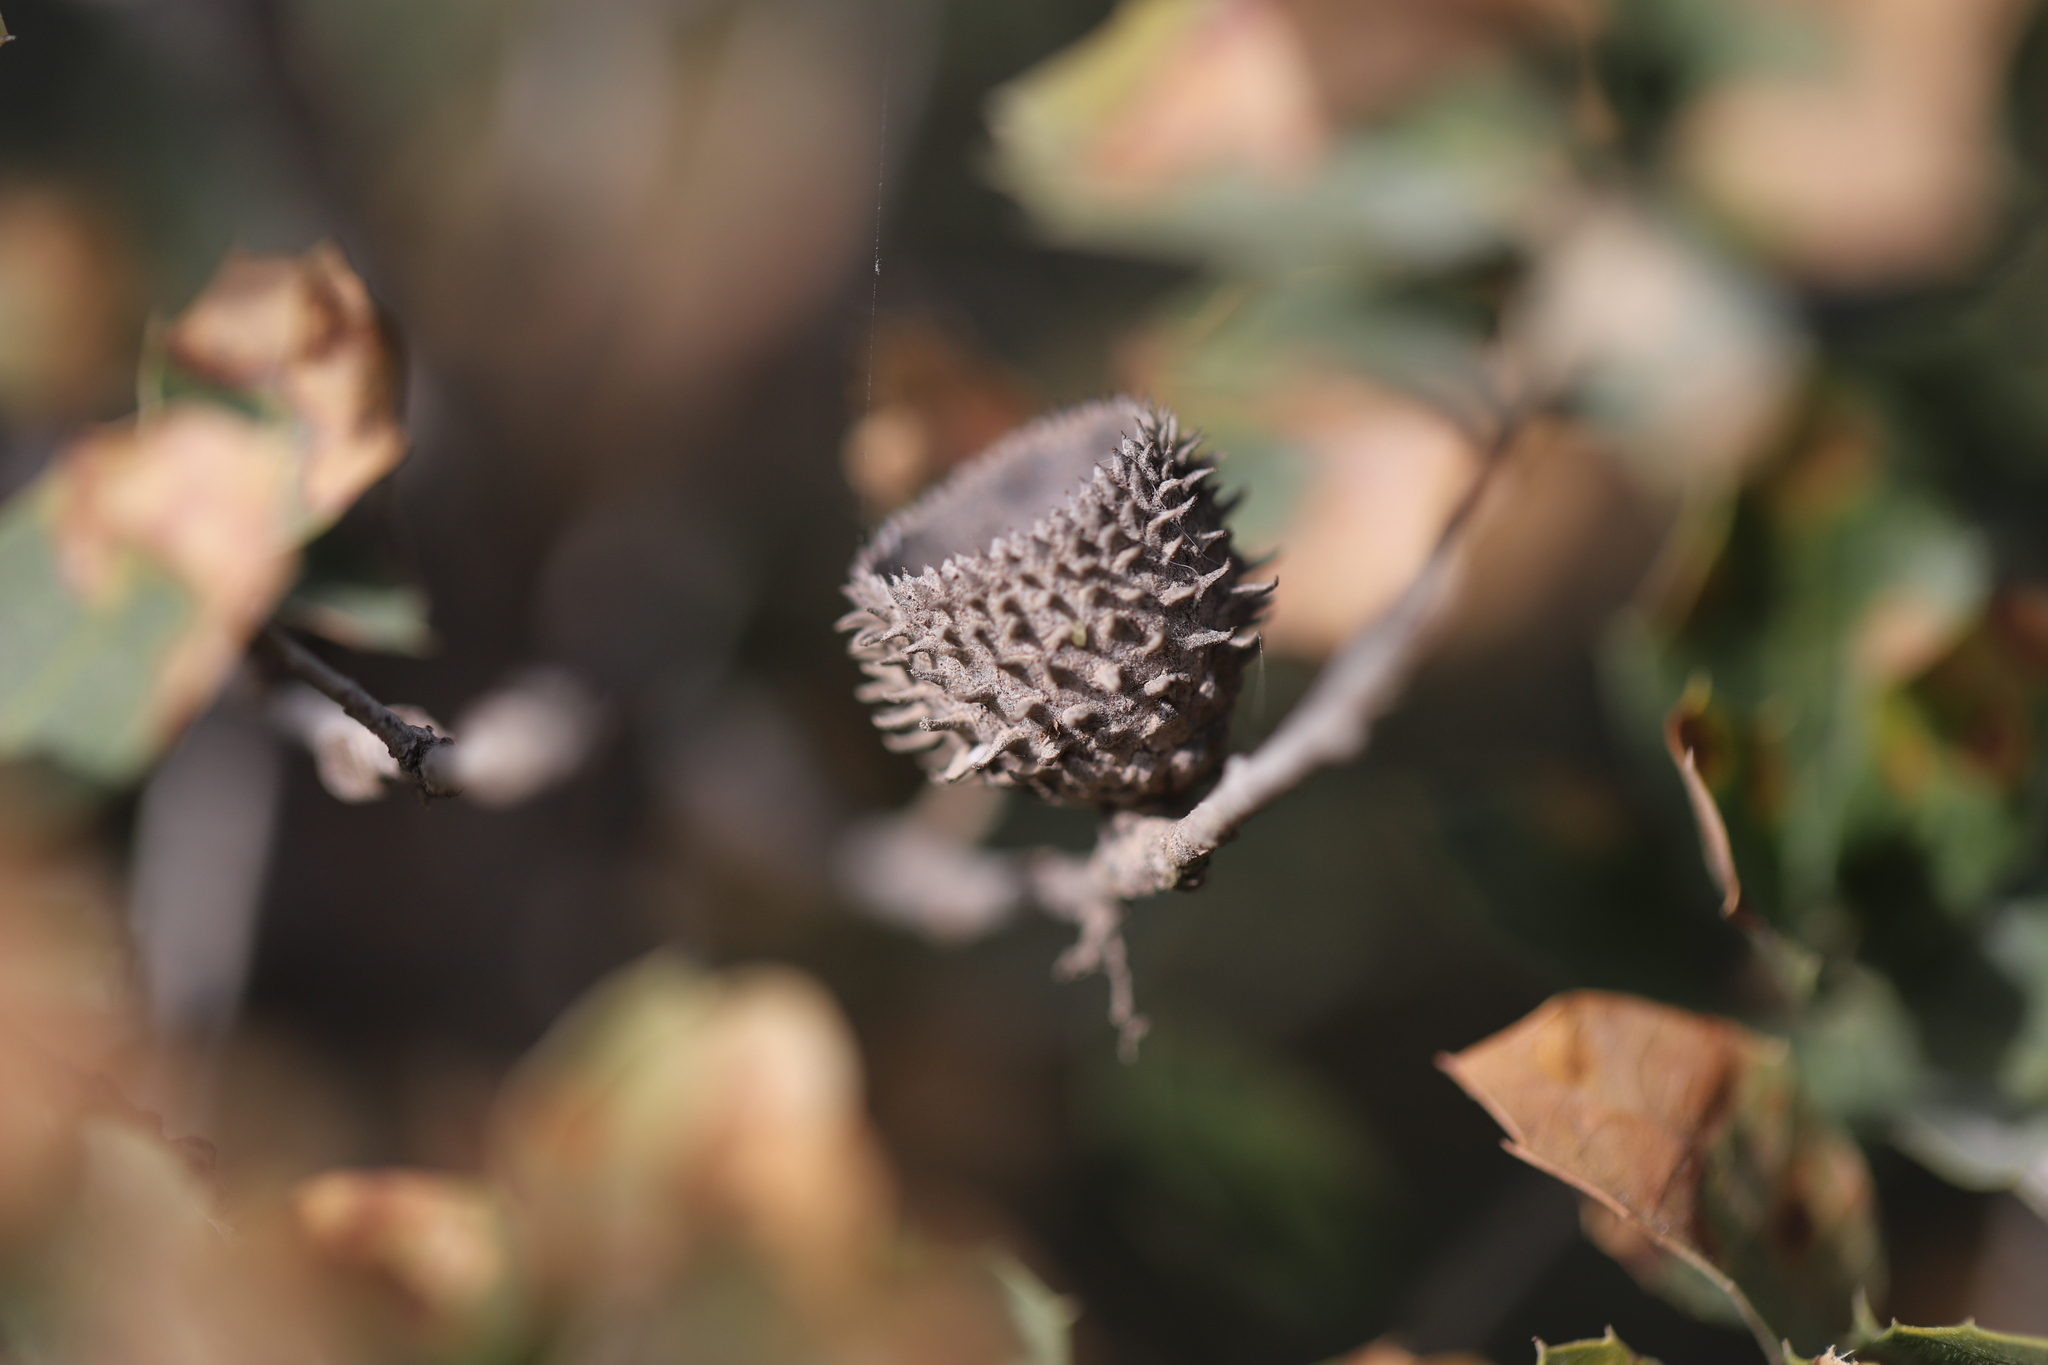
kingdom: Plantae
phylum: Tracheophyta
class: Magnoliopsida
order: Fagales
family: Fagaceae
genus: Quercus
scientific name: Quercus coccifera
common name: Kermes oak
